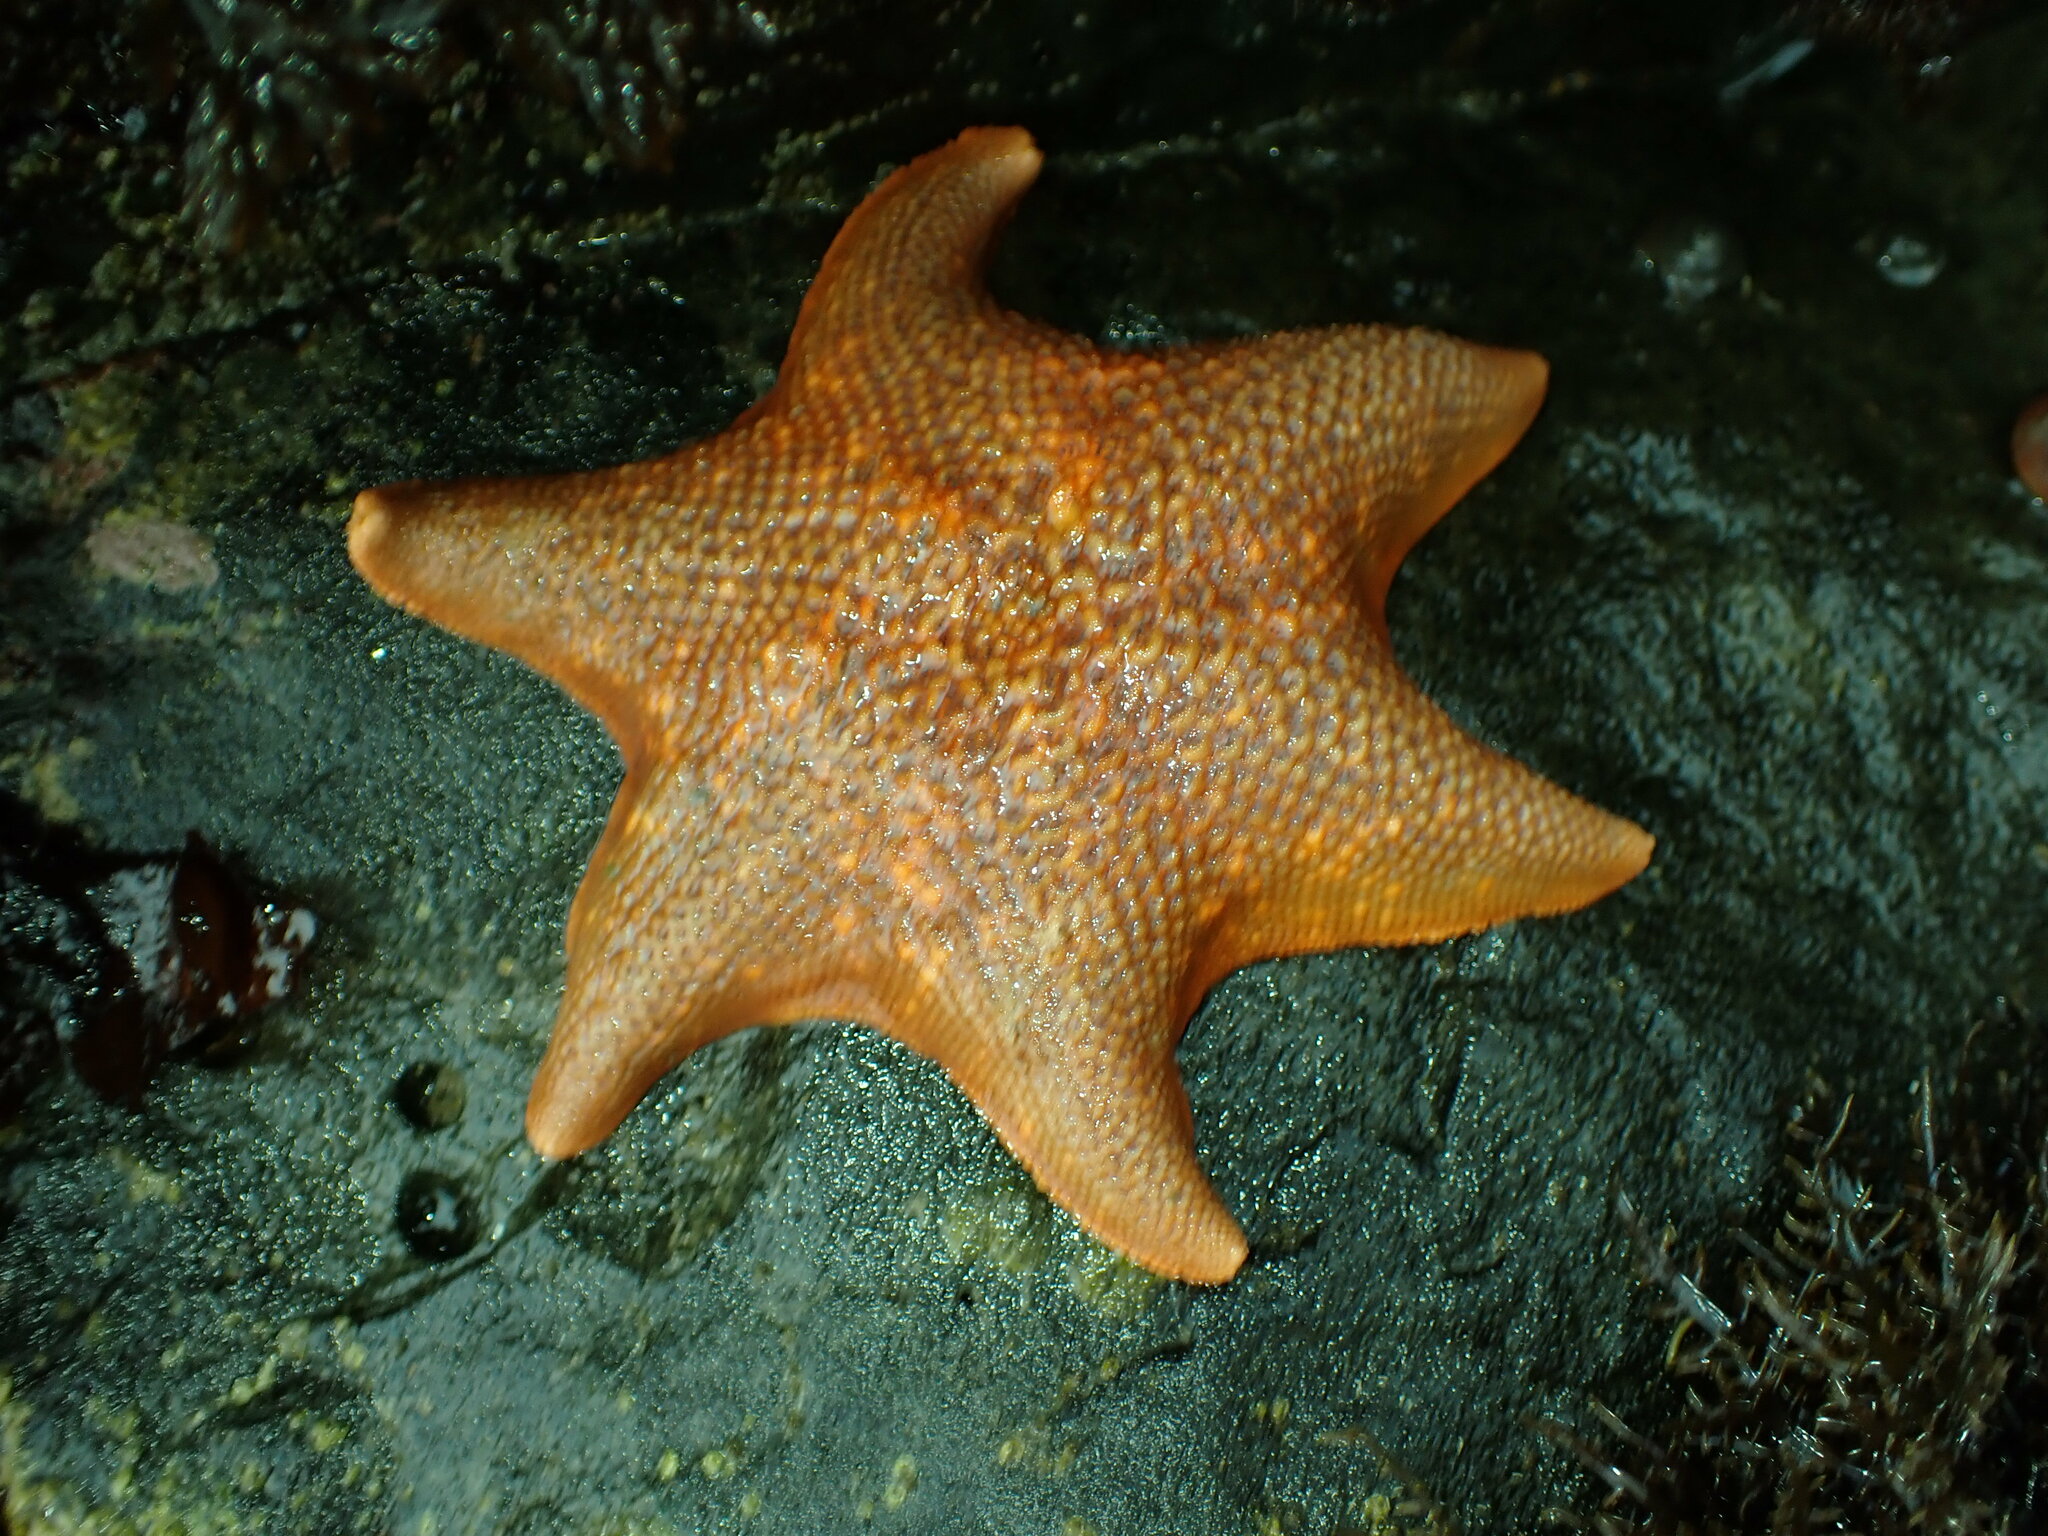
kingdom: Animalia
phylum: Echinodermata
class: Asteroidea
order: Valvatida
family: Asterinidae
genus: Patiria
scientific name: Patiria miniata
